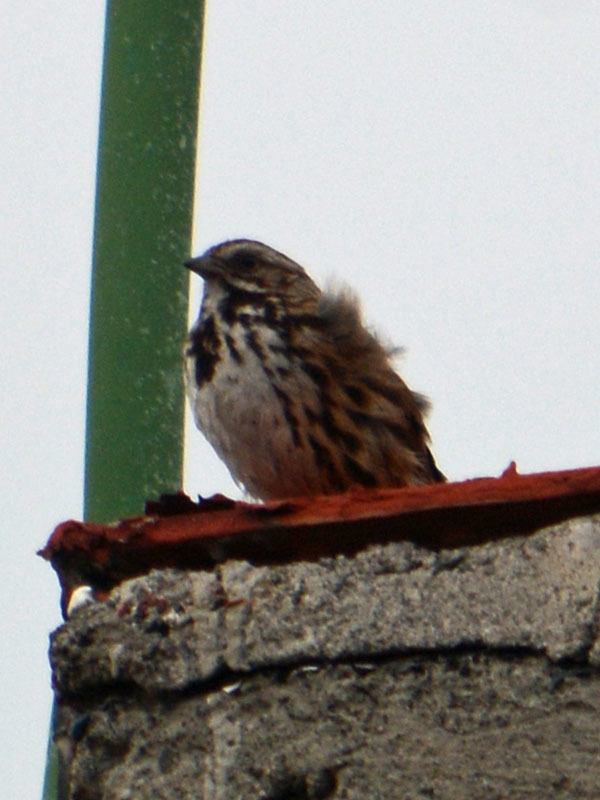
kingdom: Animalia
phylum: Chordata
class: Aves
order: Passeriformes
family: Passerellidae
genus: Melospiza
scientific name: Melospiza melodia
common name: Song sparrow
